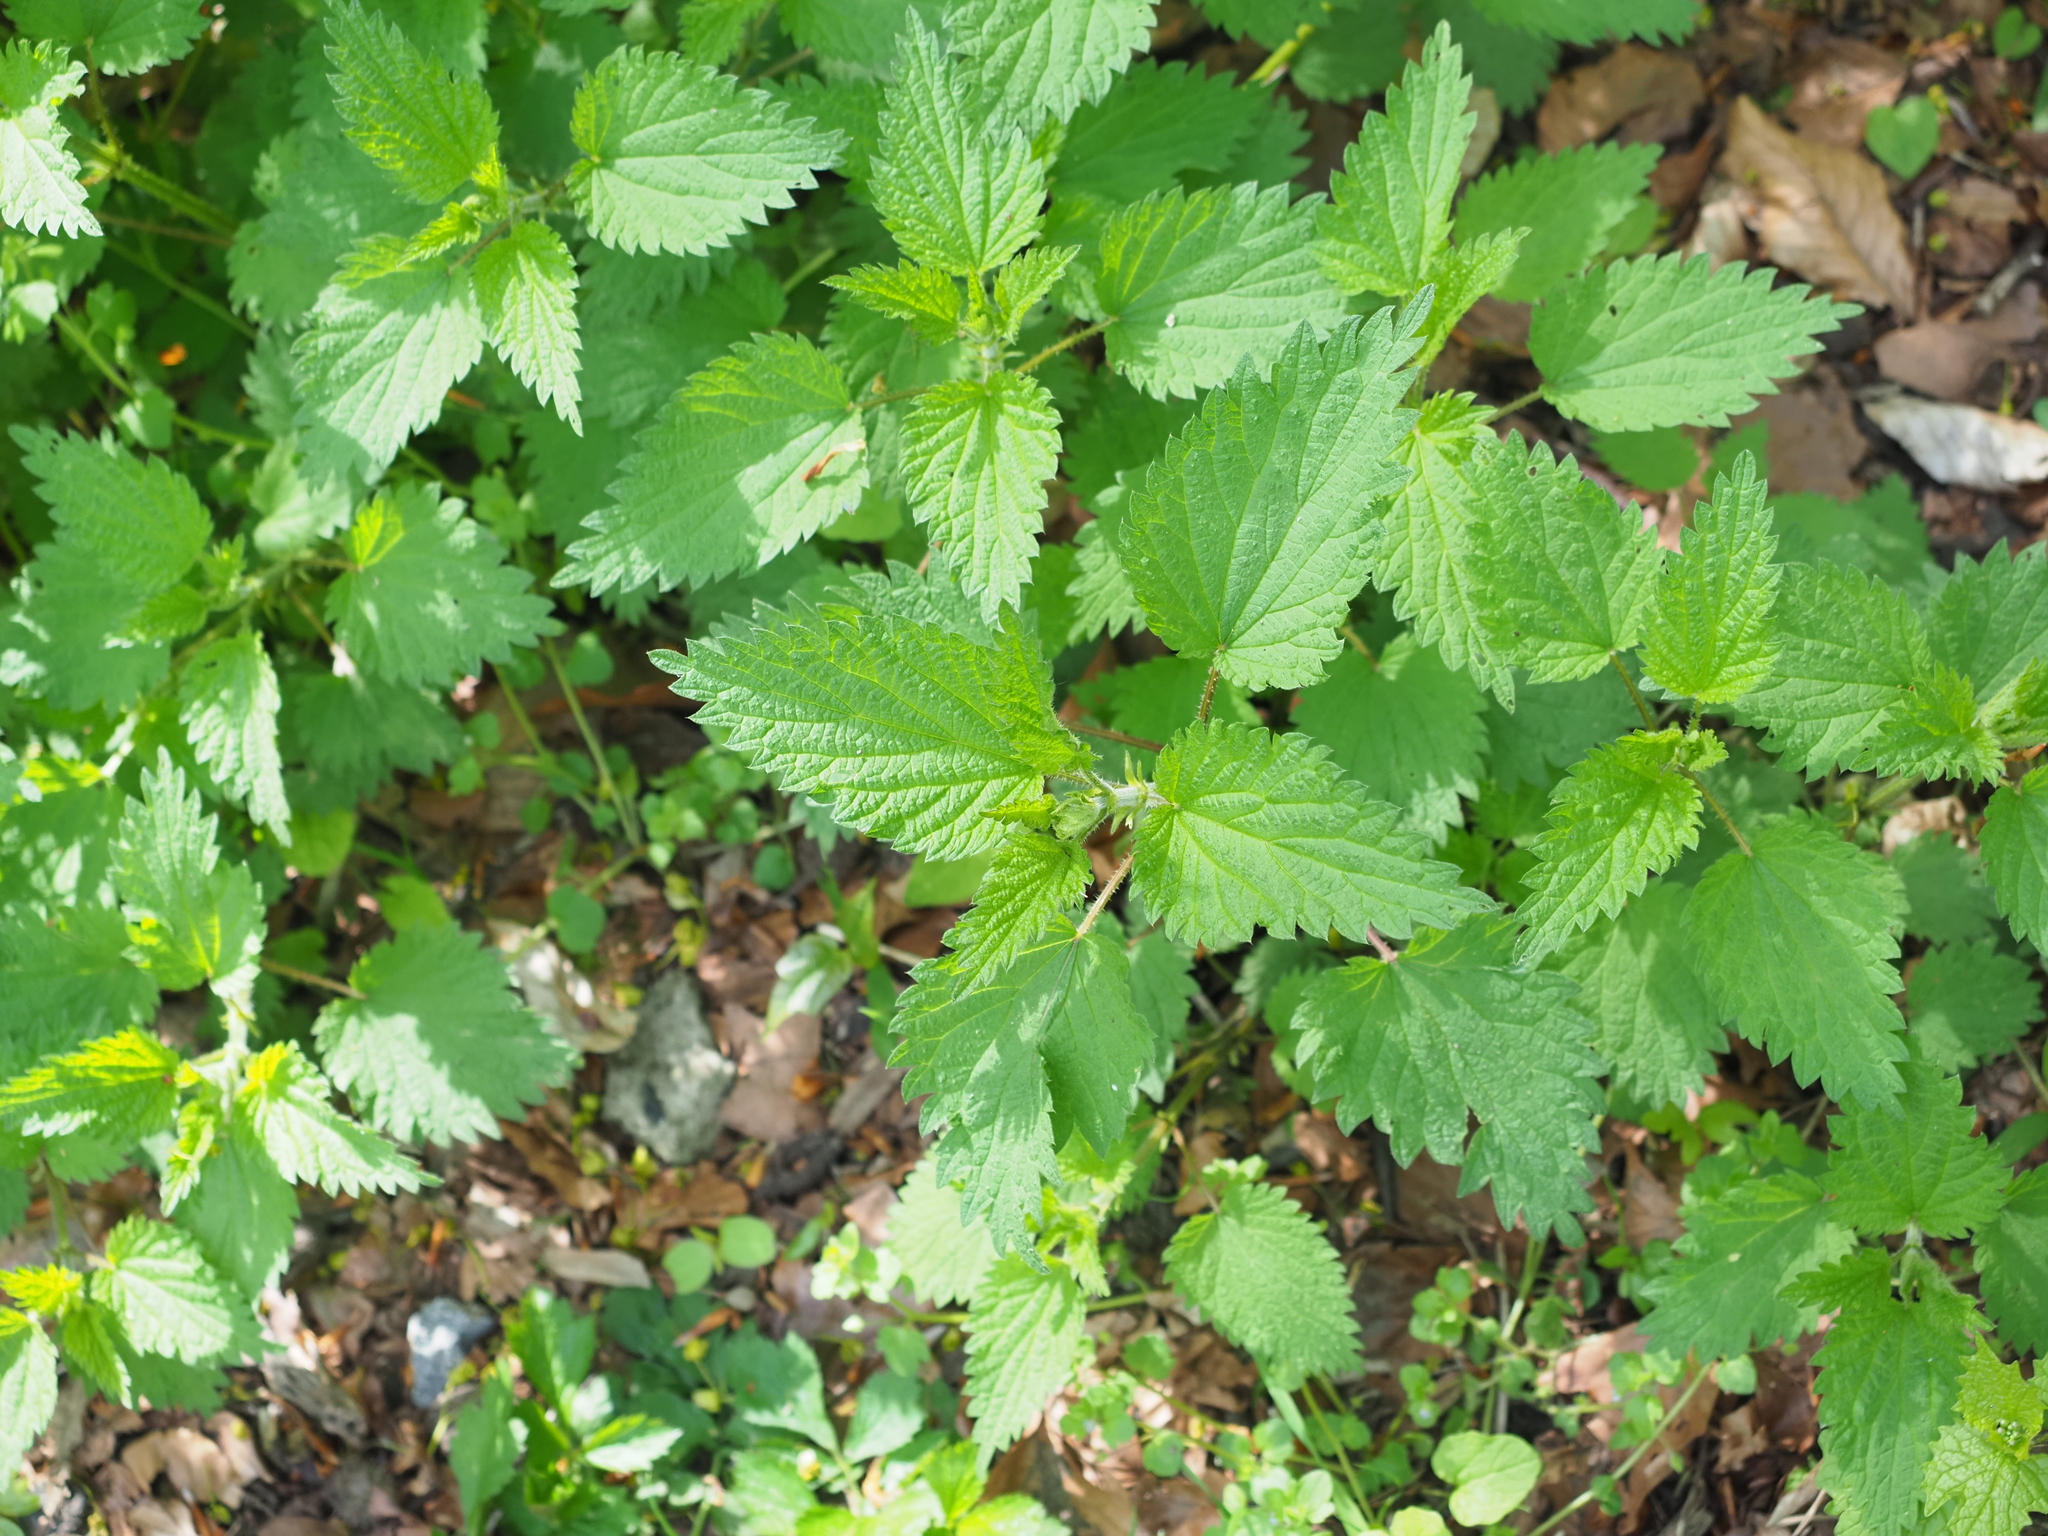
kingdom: Plantae
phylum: Tracheophyta
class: Magnoliopsida
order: Rosales
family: Urticaceae
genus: Urtica
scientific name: Urtica dioica
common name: Common nettle
